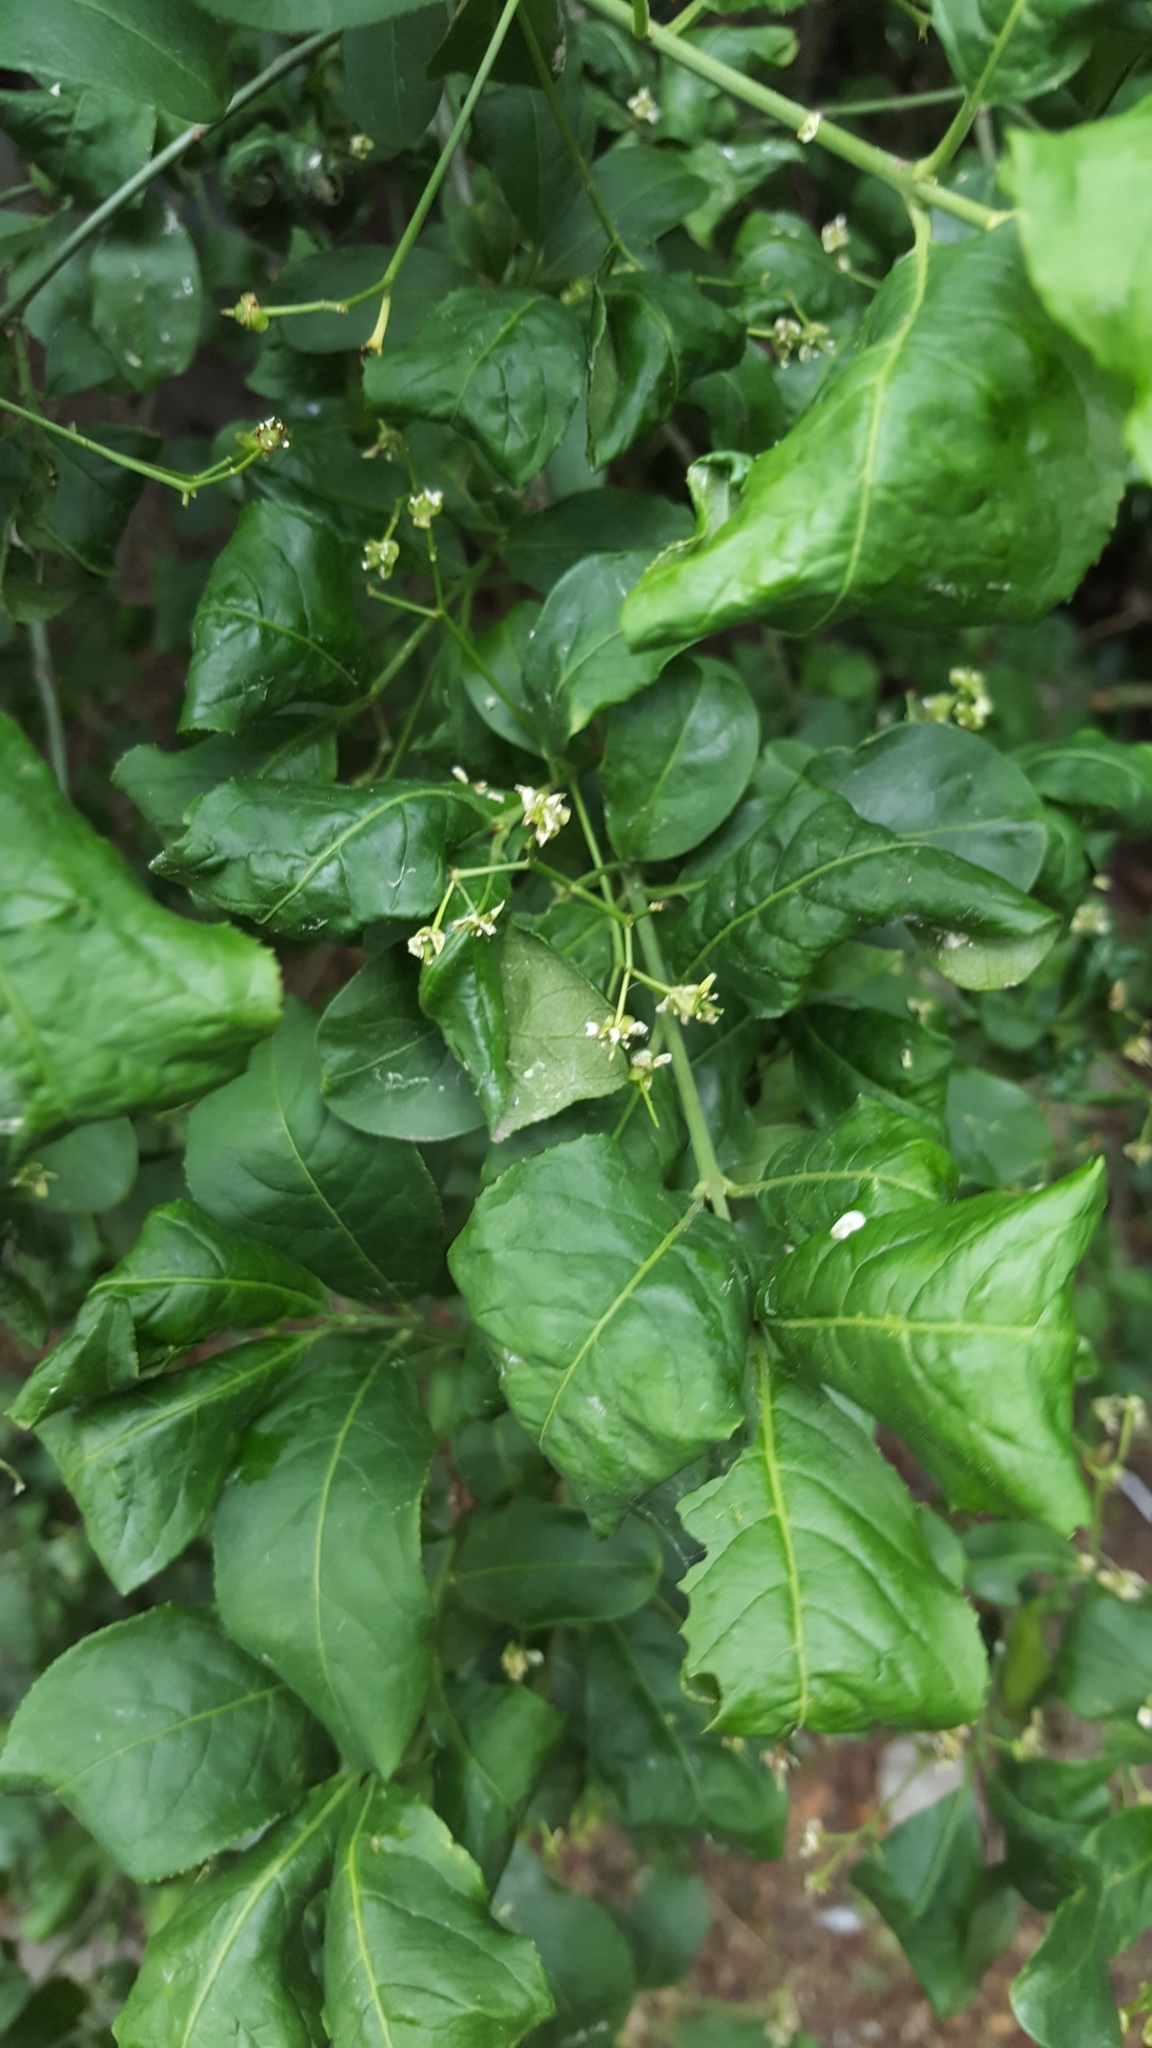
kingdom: Plantae
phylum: Tracheophyta
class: Magnoliopsida
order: Celastrales
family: Celastraceae
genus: Euonymus
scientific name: Euonymus europaeus
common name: Spindle
